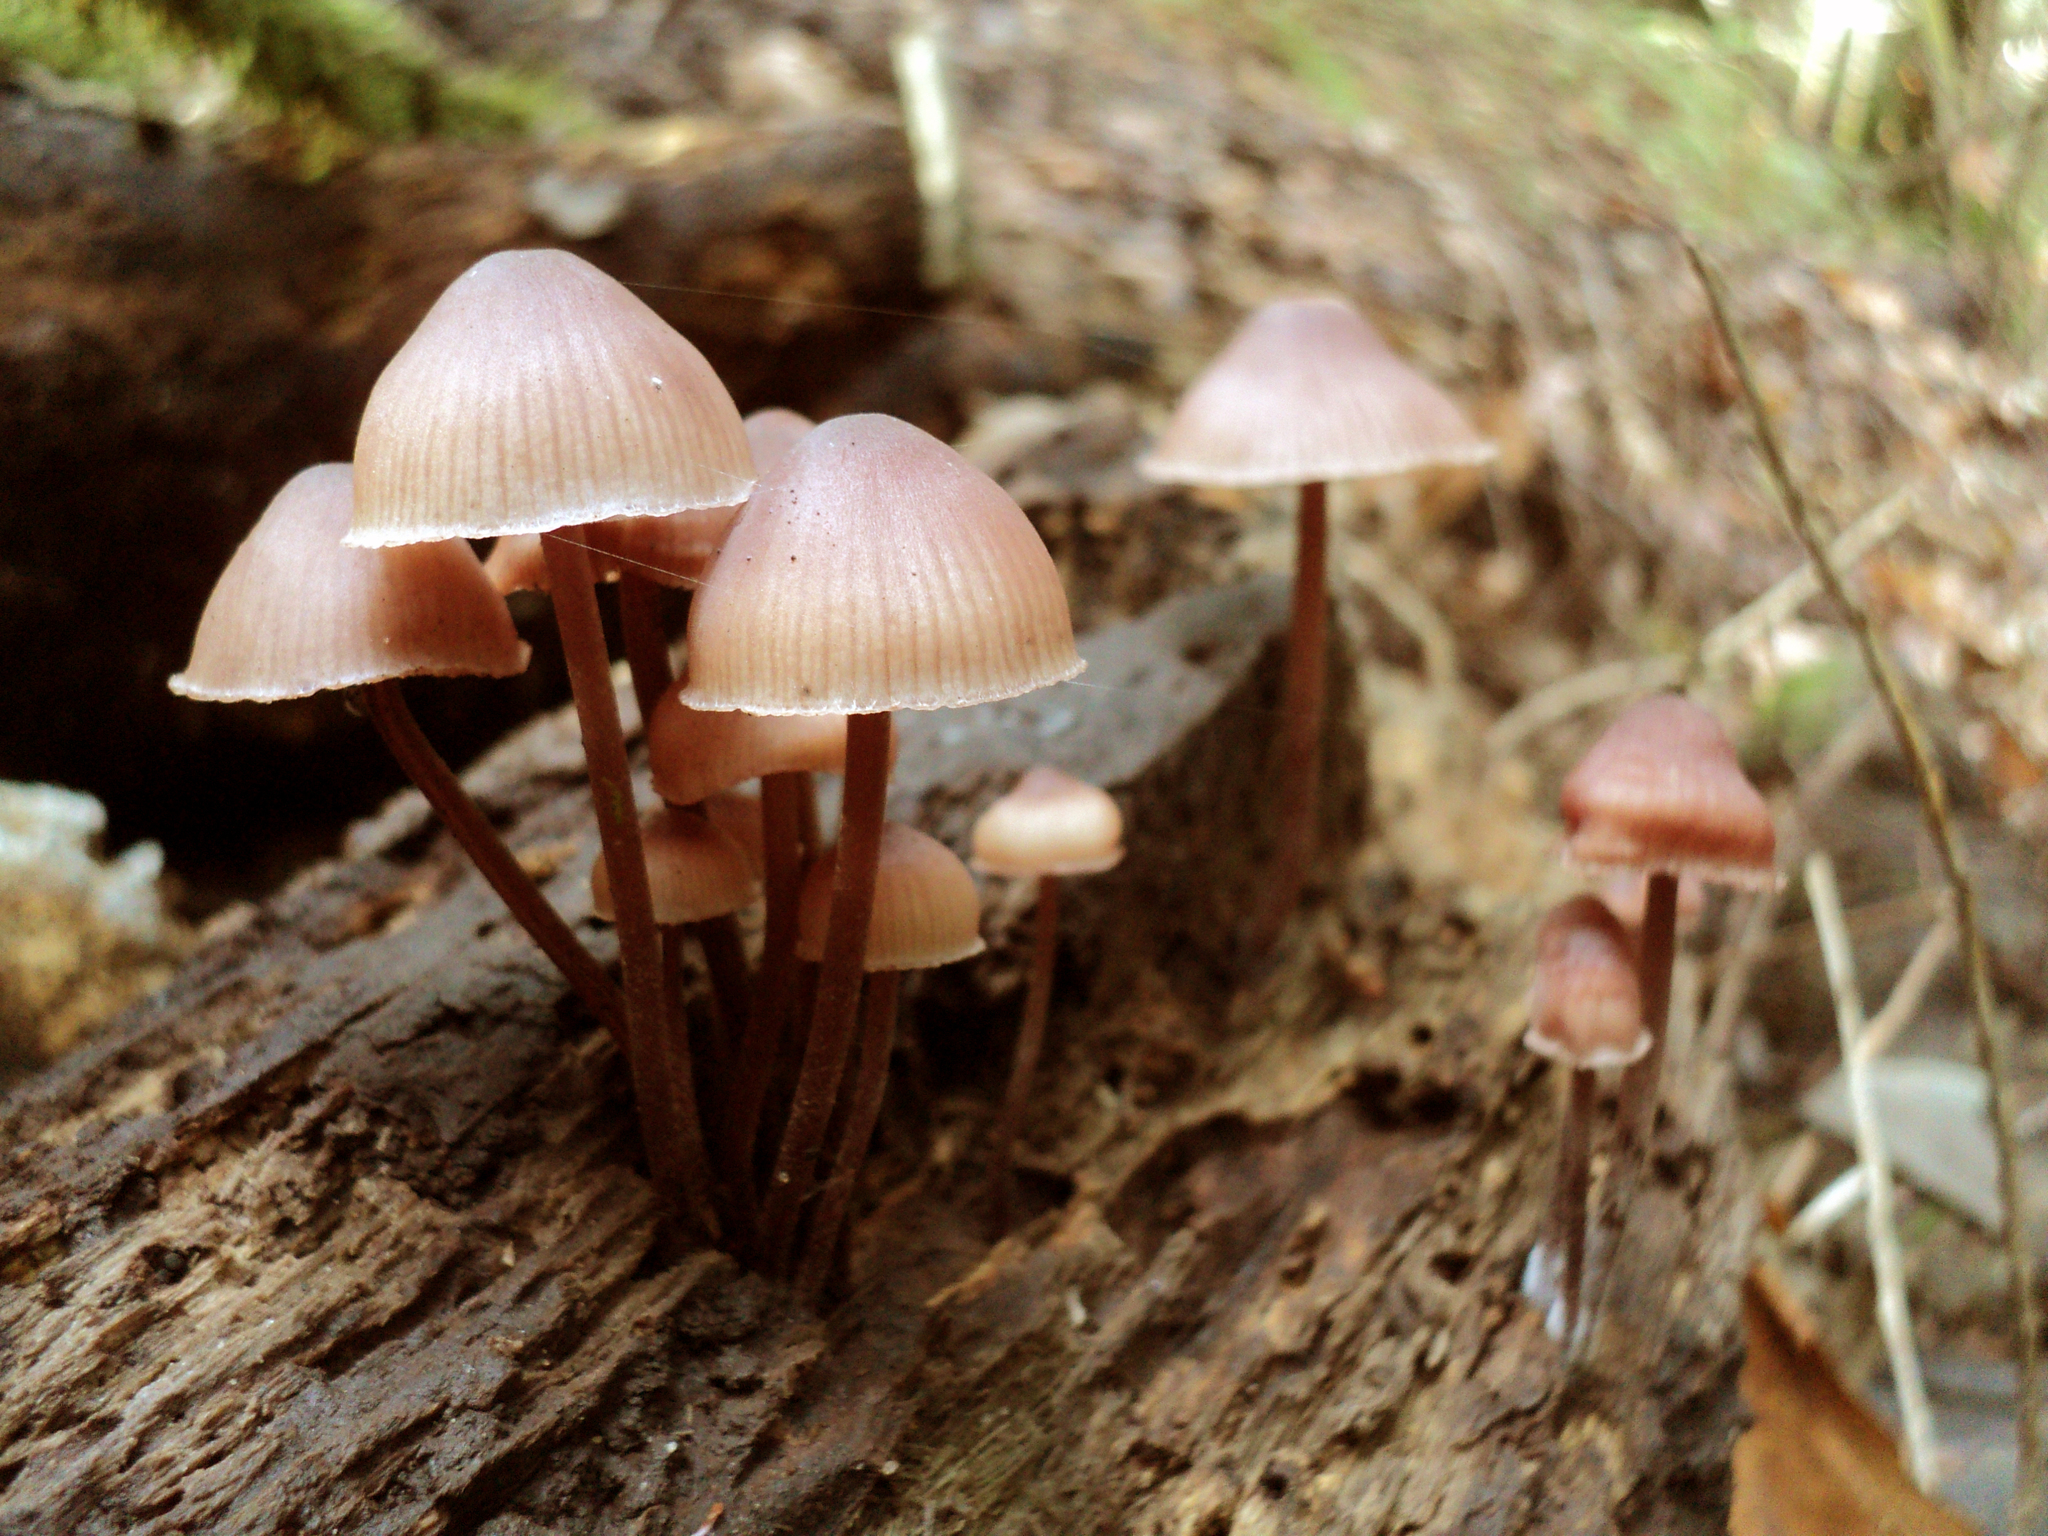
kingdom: Fungi
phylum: Basidiomycota
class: Agaricomycetes
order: Agaricales
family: Mycenaceae
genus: Mycena
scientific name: Mycena haematopus
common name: Burgundydrop bonnet
